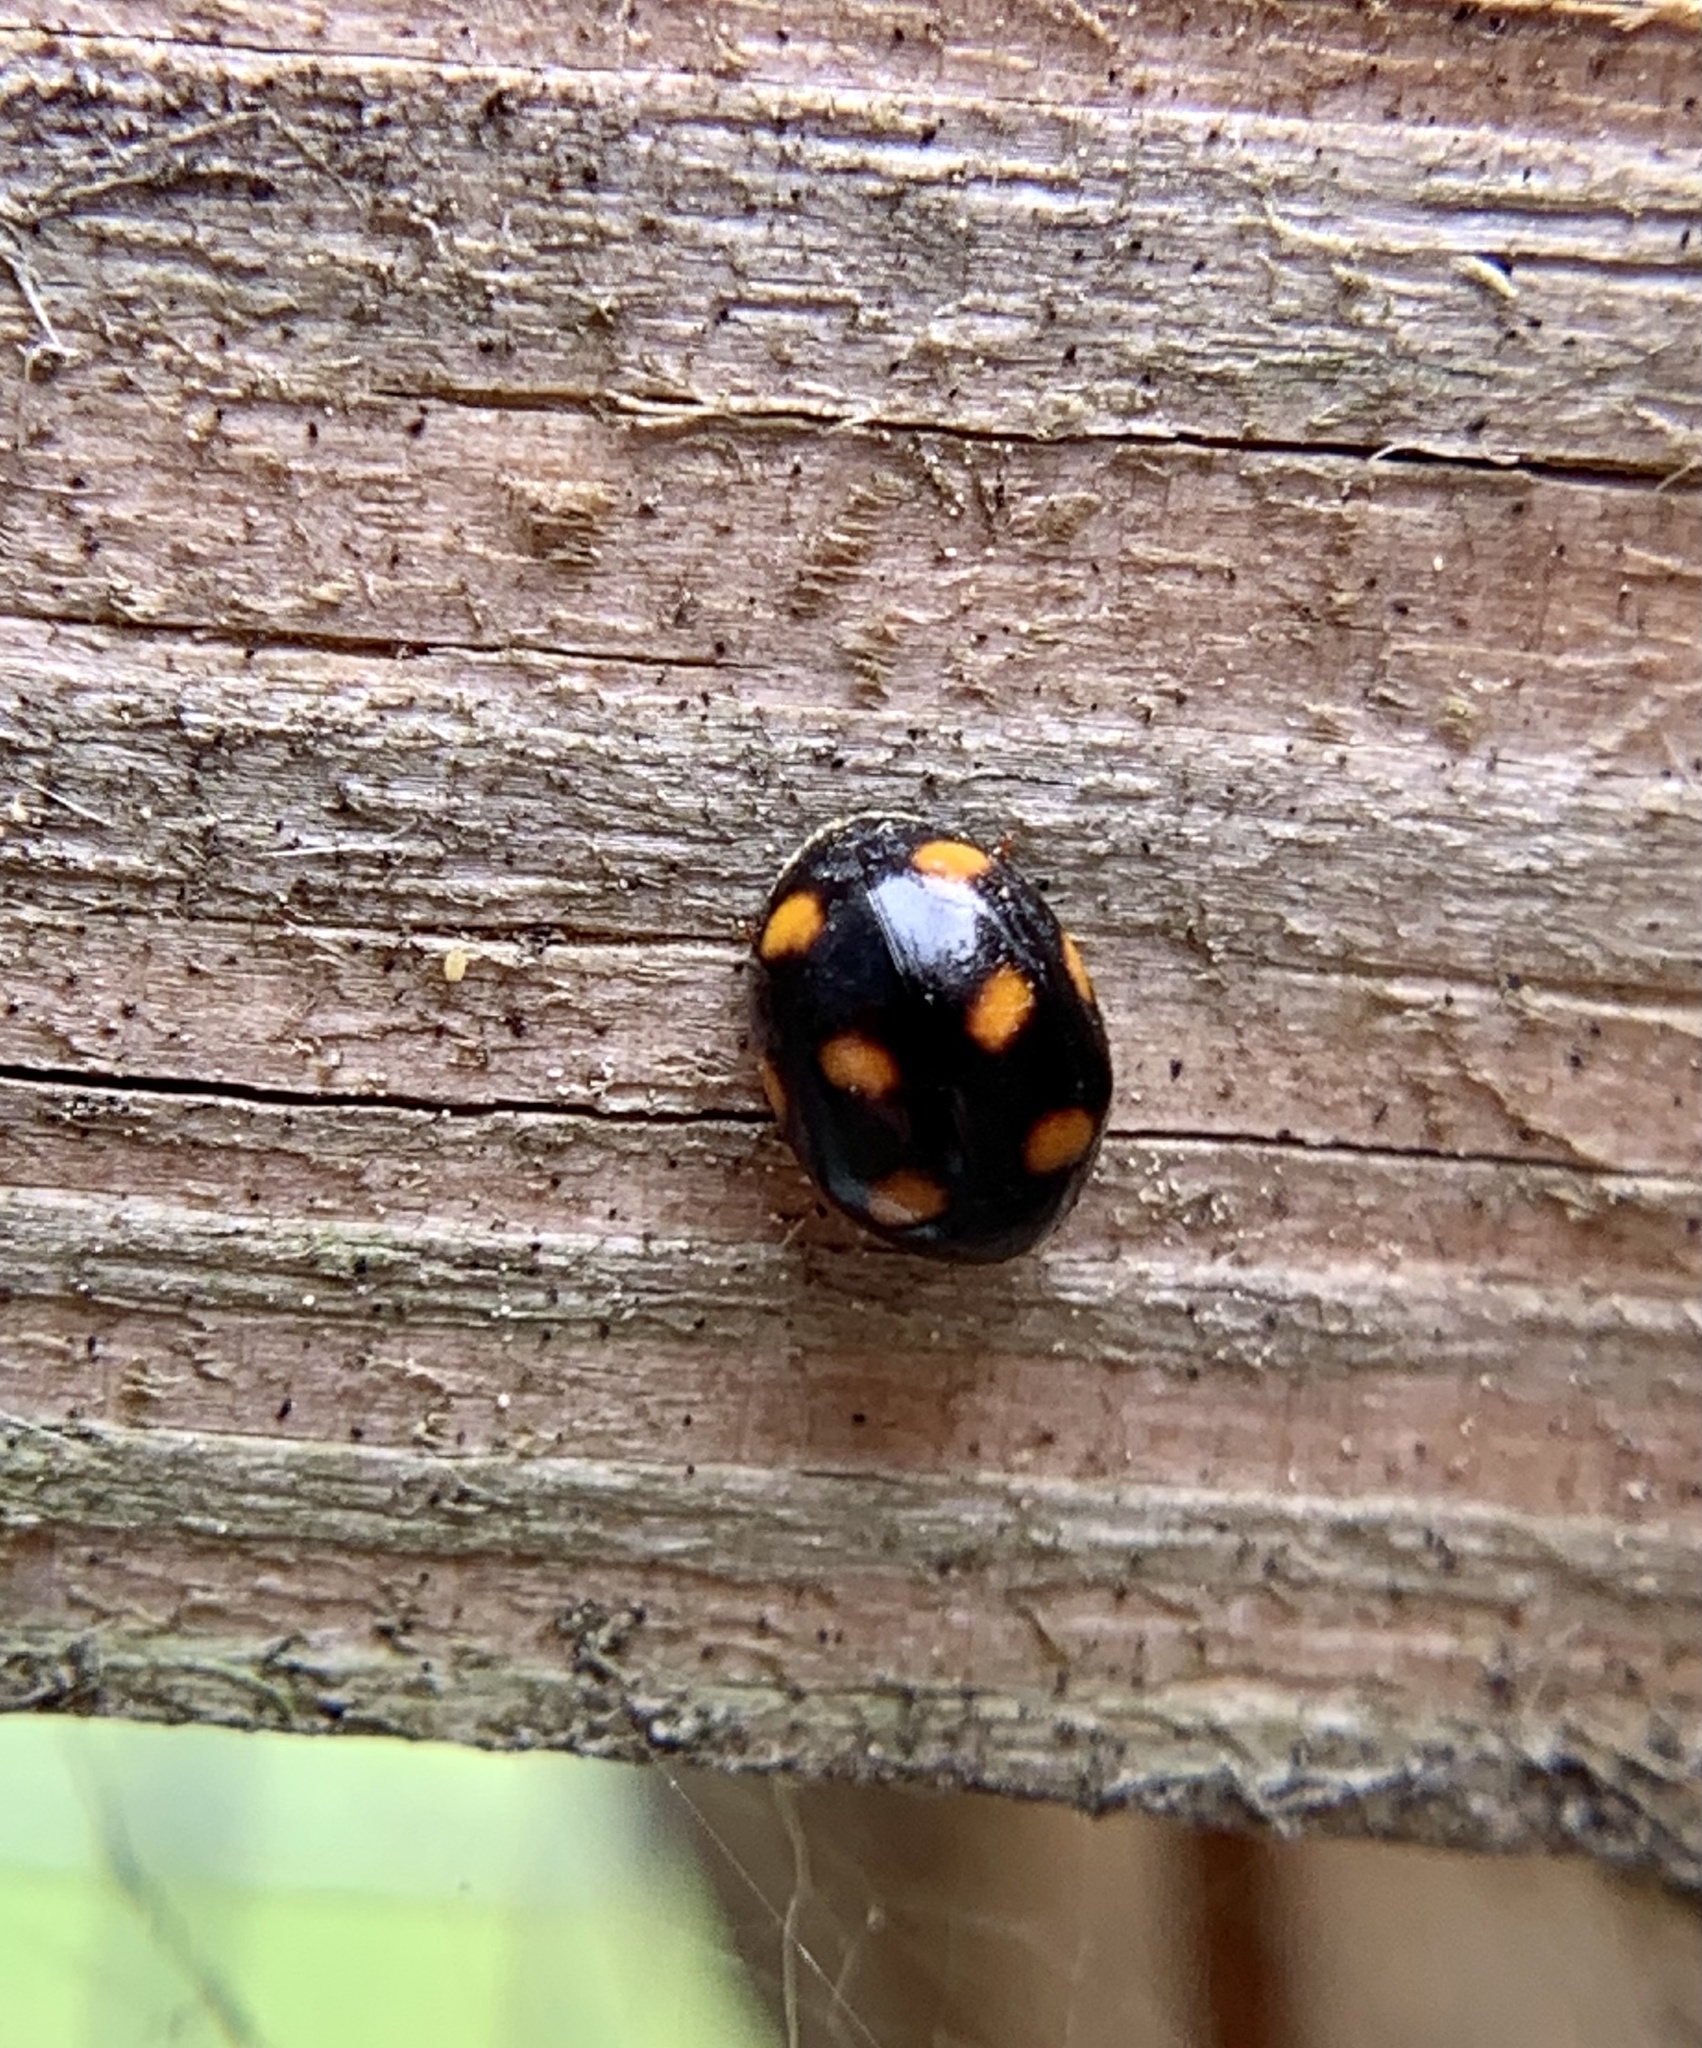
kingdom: Animalia
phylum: Arthropoda
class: Insecta
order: Coleoptera
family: Coccinellidae
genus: Brachiacantha
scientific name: Brachiacantha ursina
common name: Ursine spurleg lady beetle
